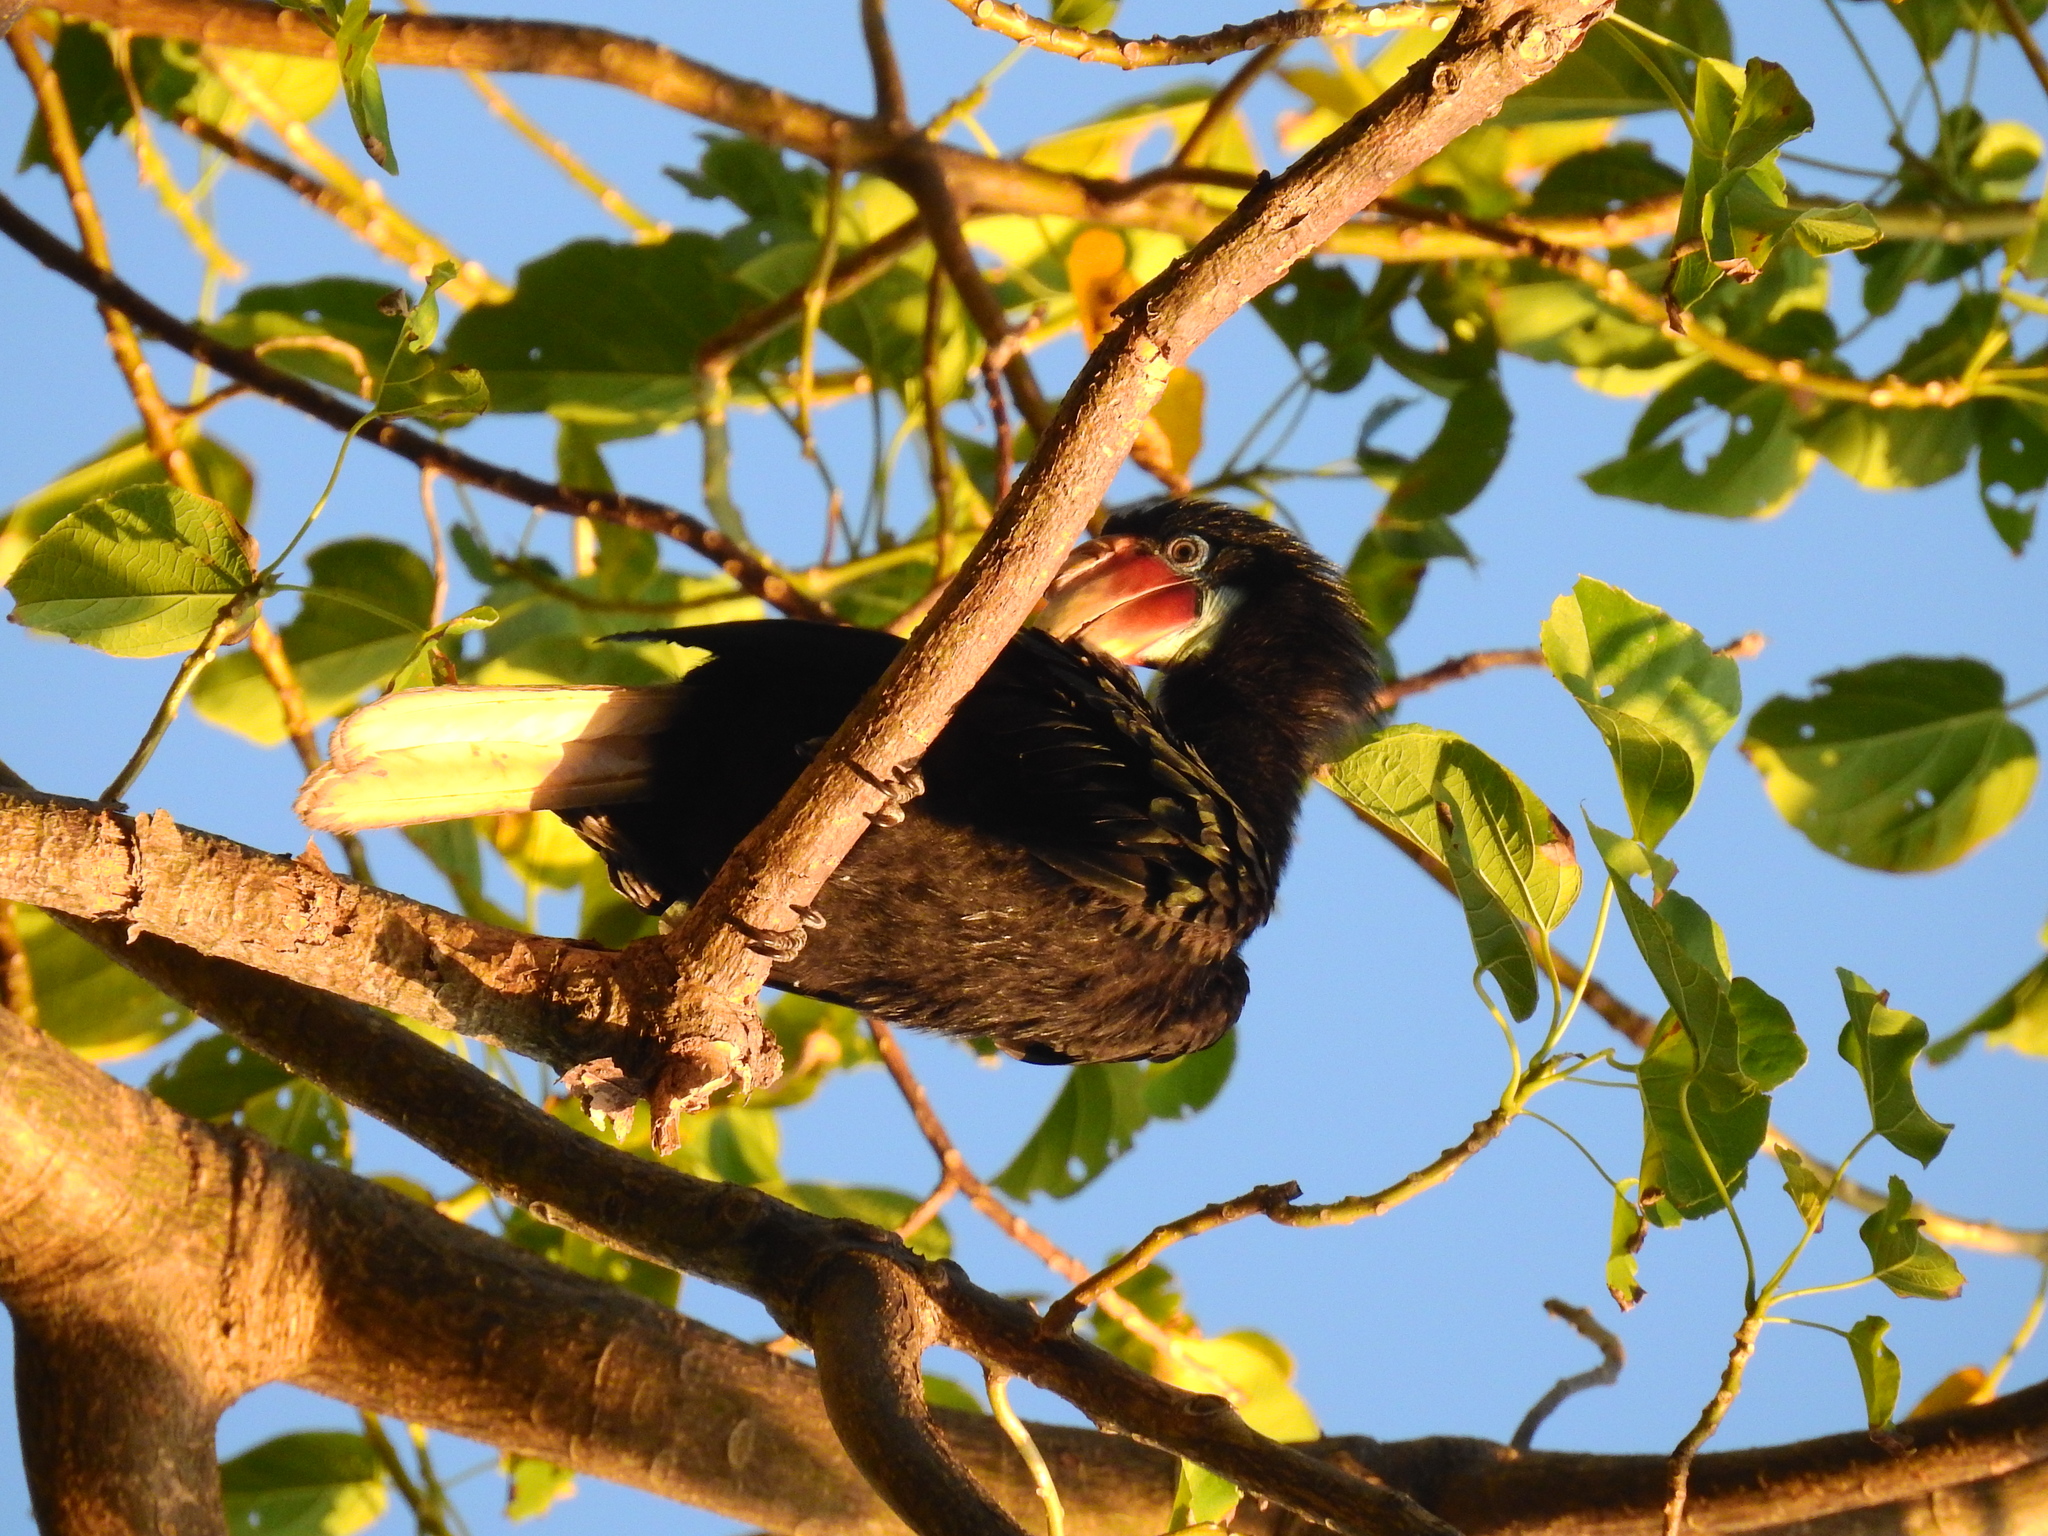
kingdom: Animalia
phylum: Chordata
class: Aves
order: Bucerotiformes
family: Bucerotidae
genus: Rhyticeros
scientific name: Rhyticeros narcondami
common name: Narcondam hornbill
